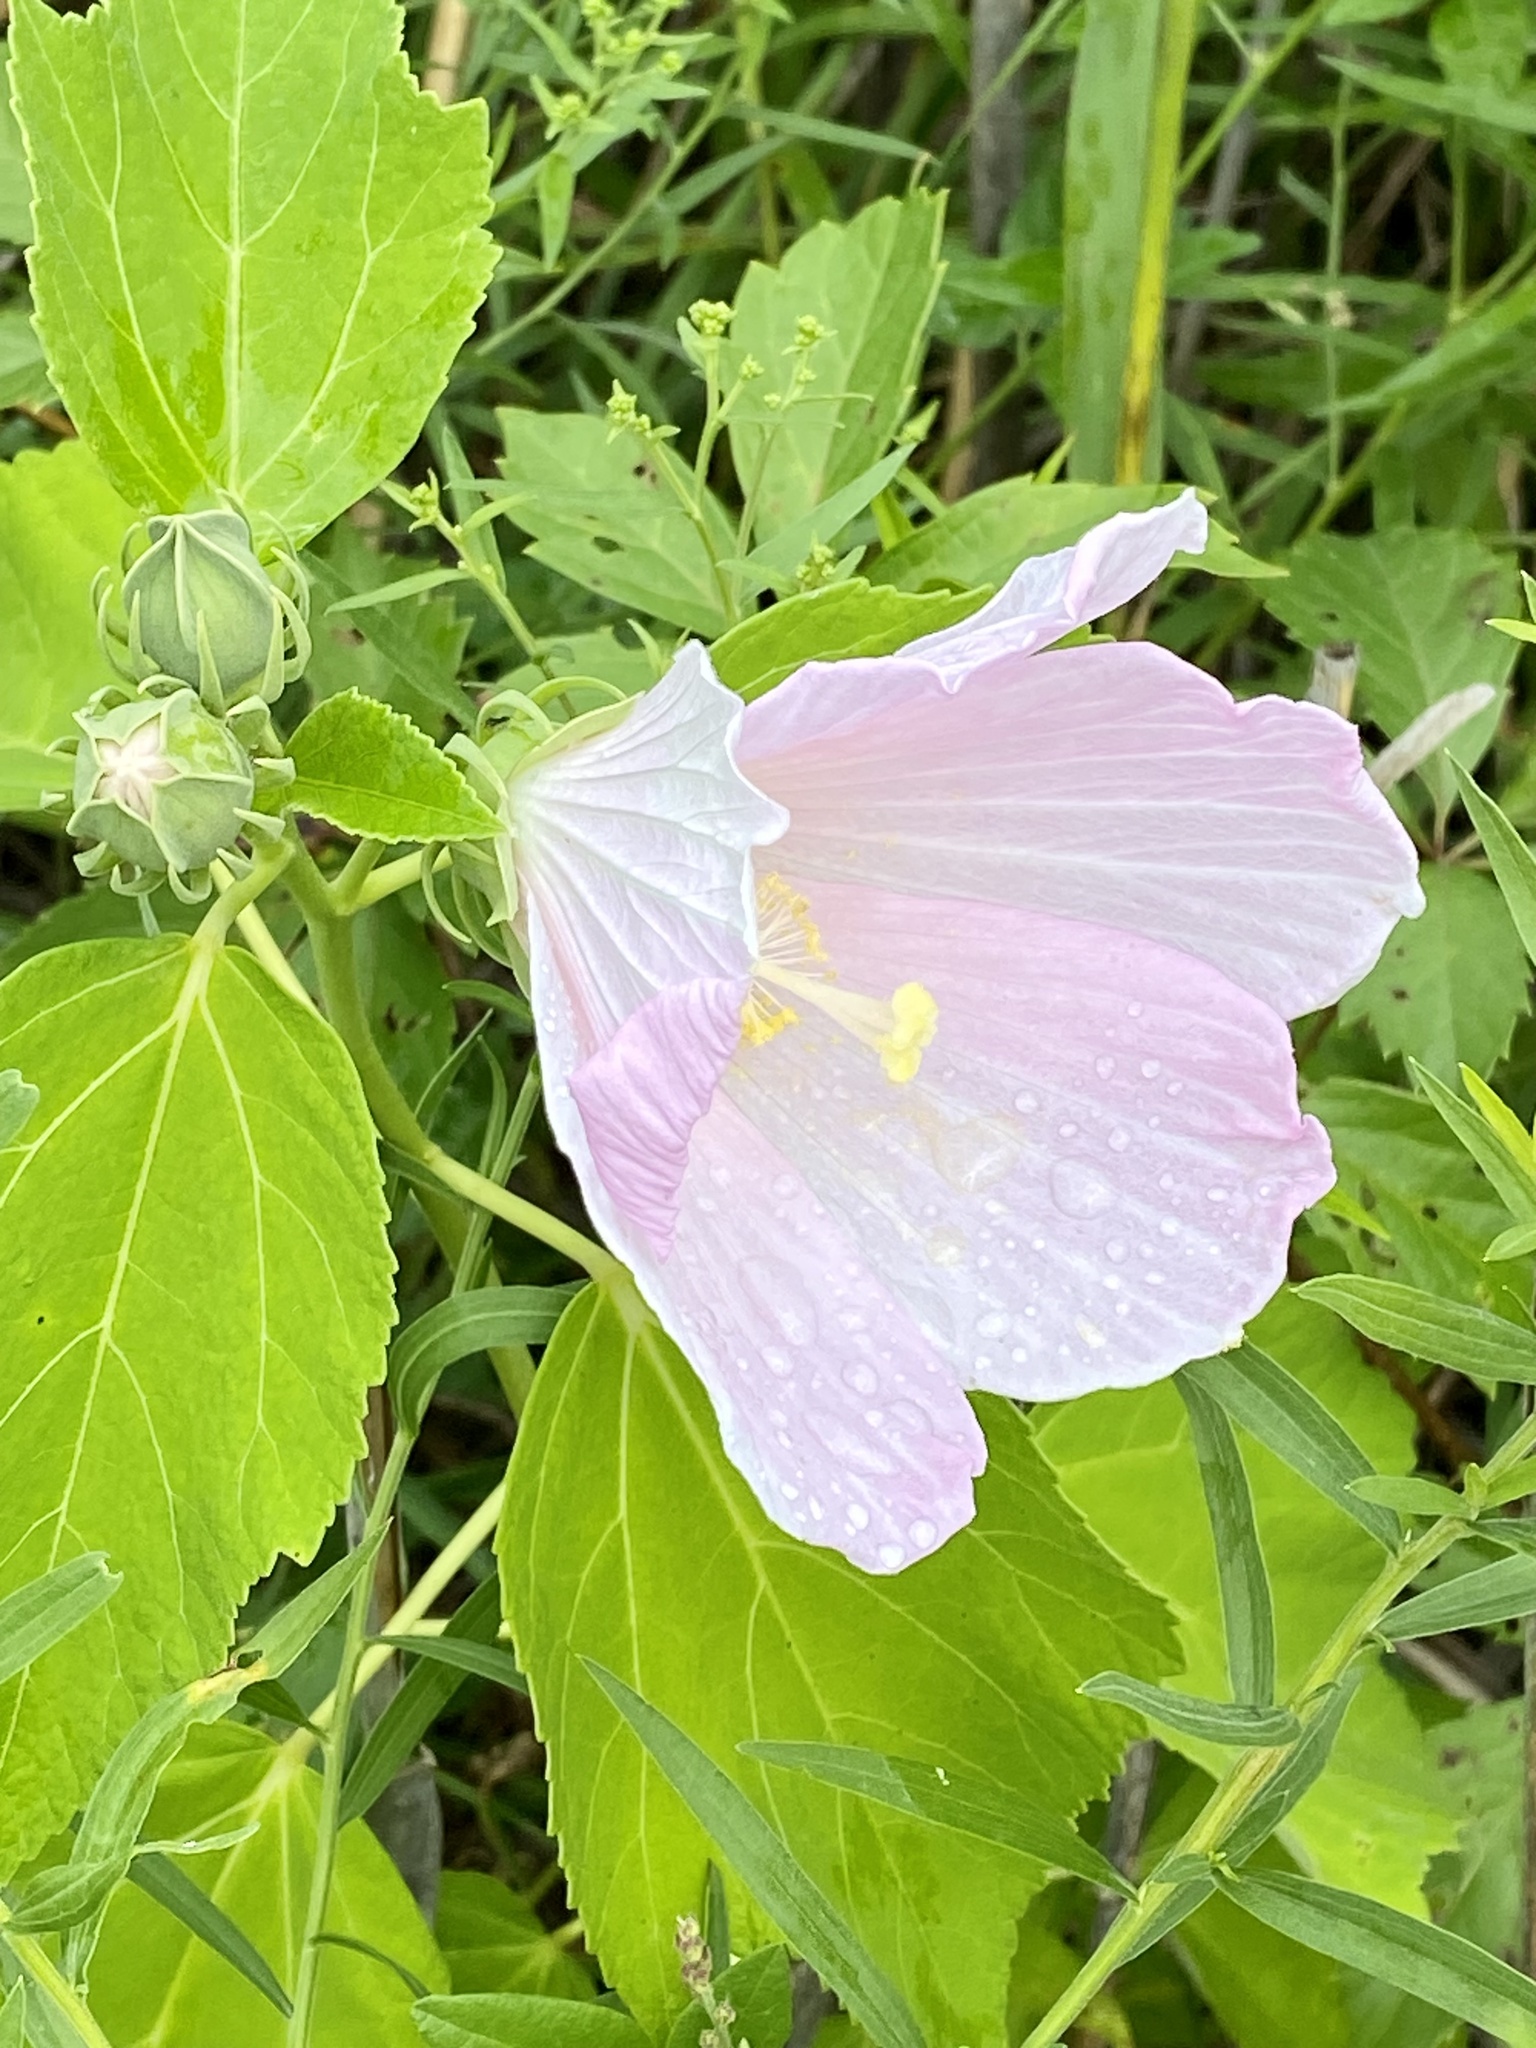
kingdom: Plantae
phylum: Tracheophyta
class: Magnoliopsida
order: Malvales
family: Malvaceae
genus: Hibiscus
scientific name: Hibiscus moscheutos
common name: Common rose-mallow
